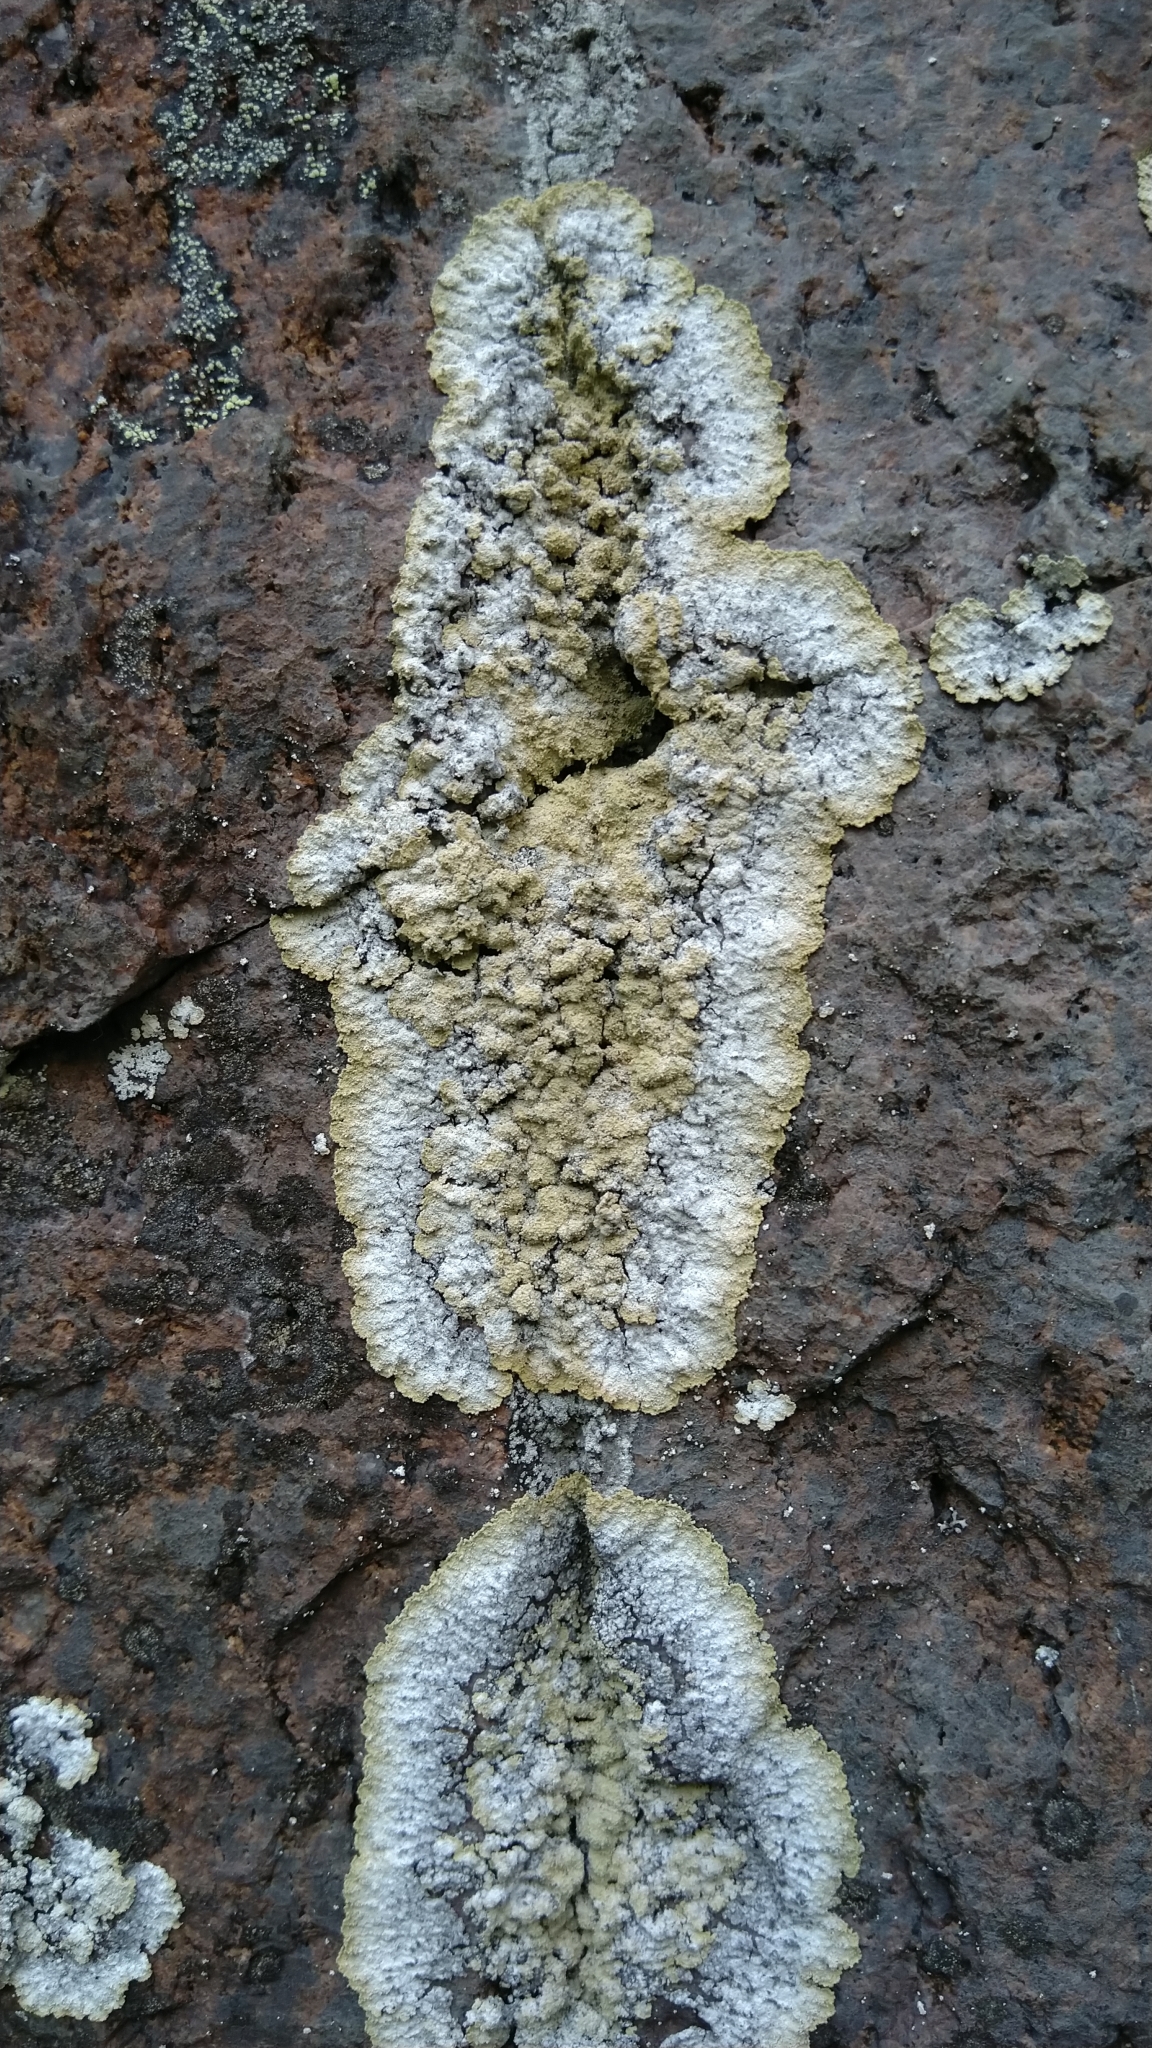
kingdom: Fungi
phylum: Ascomycota
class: Lecanoromycetes
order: Lecanorales
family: Stereocaulaceae
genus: Lepraria
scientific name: Lepraria membranacea
